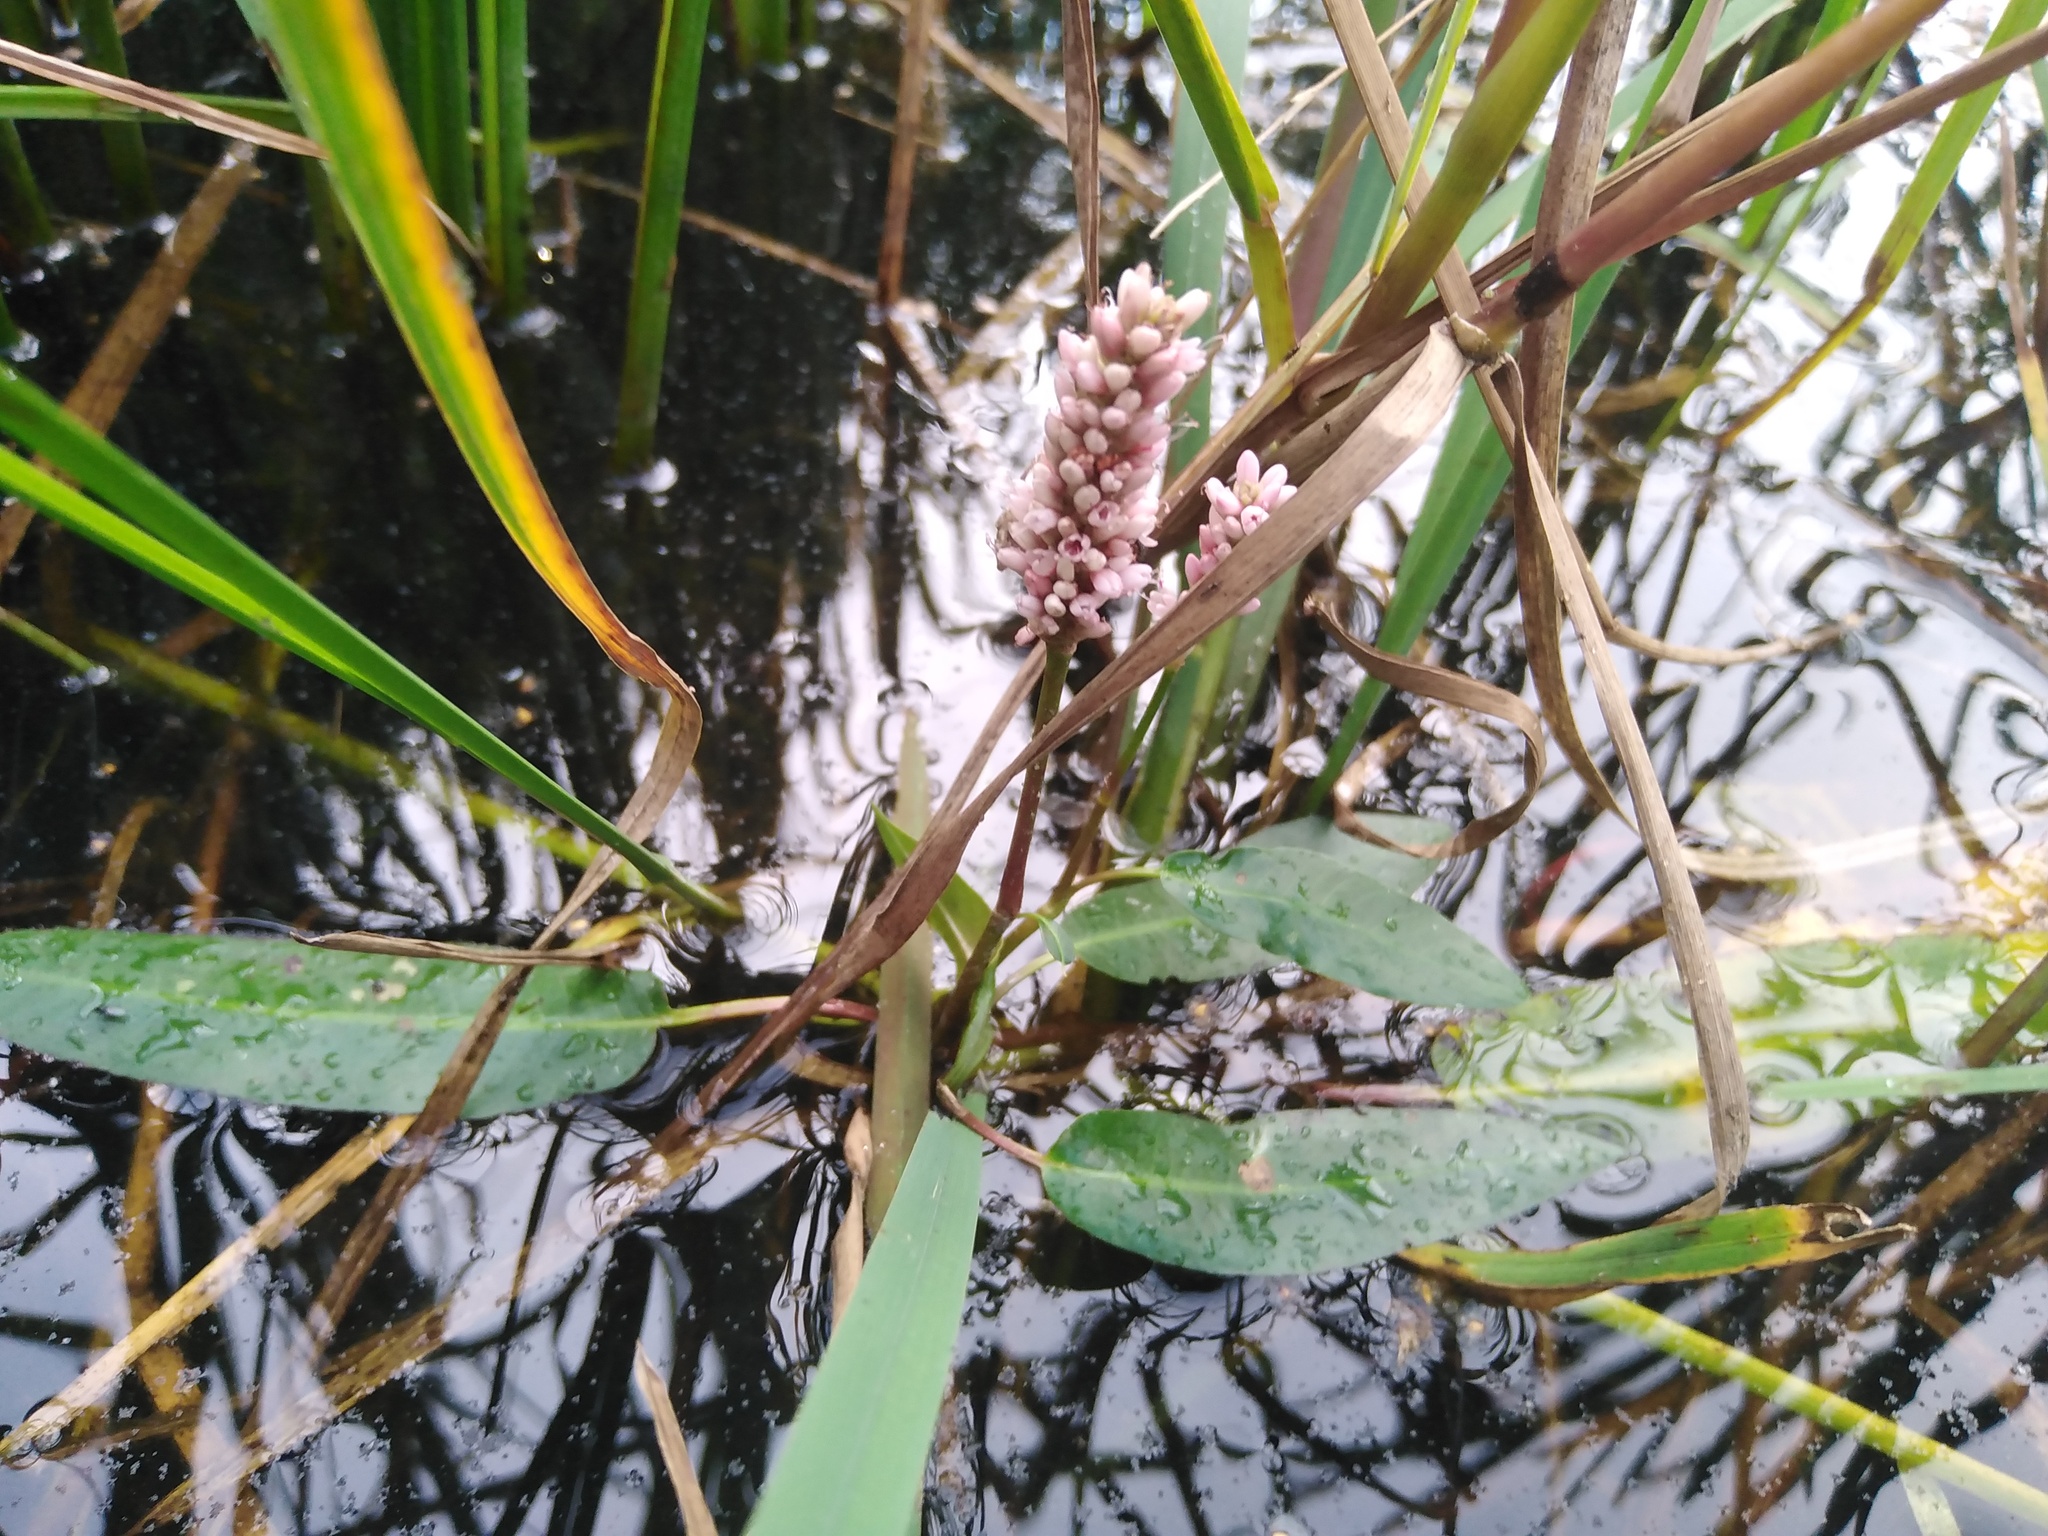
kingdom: Plantae
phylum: Tracheophyta
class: Magnoliopsida
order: Caryophyllales
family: Polygonaceae
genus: Persicaria
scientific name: Persicaria amphibia
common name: Amphibious bistort
